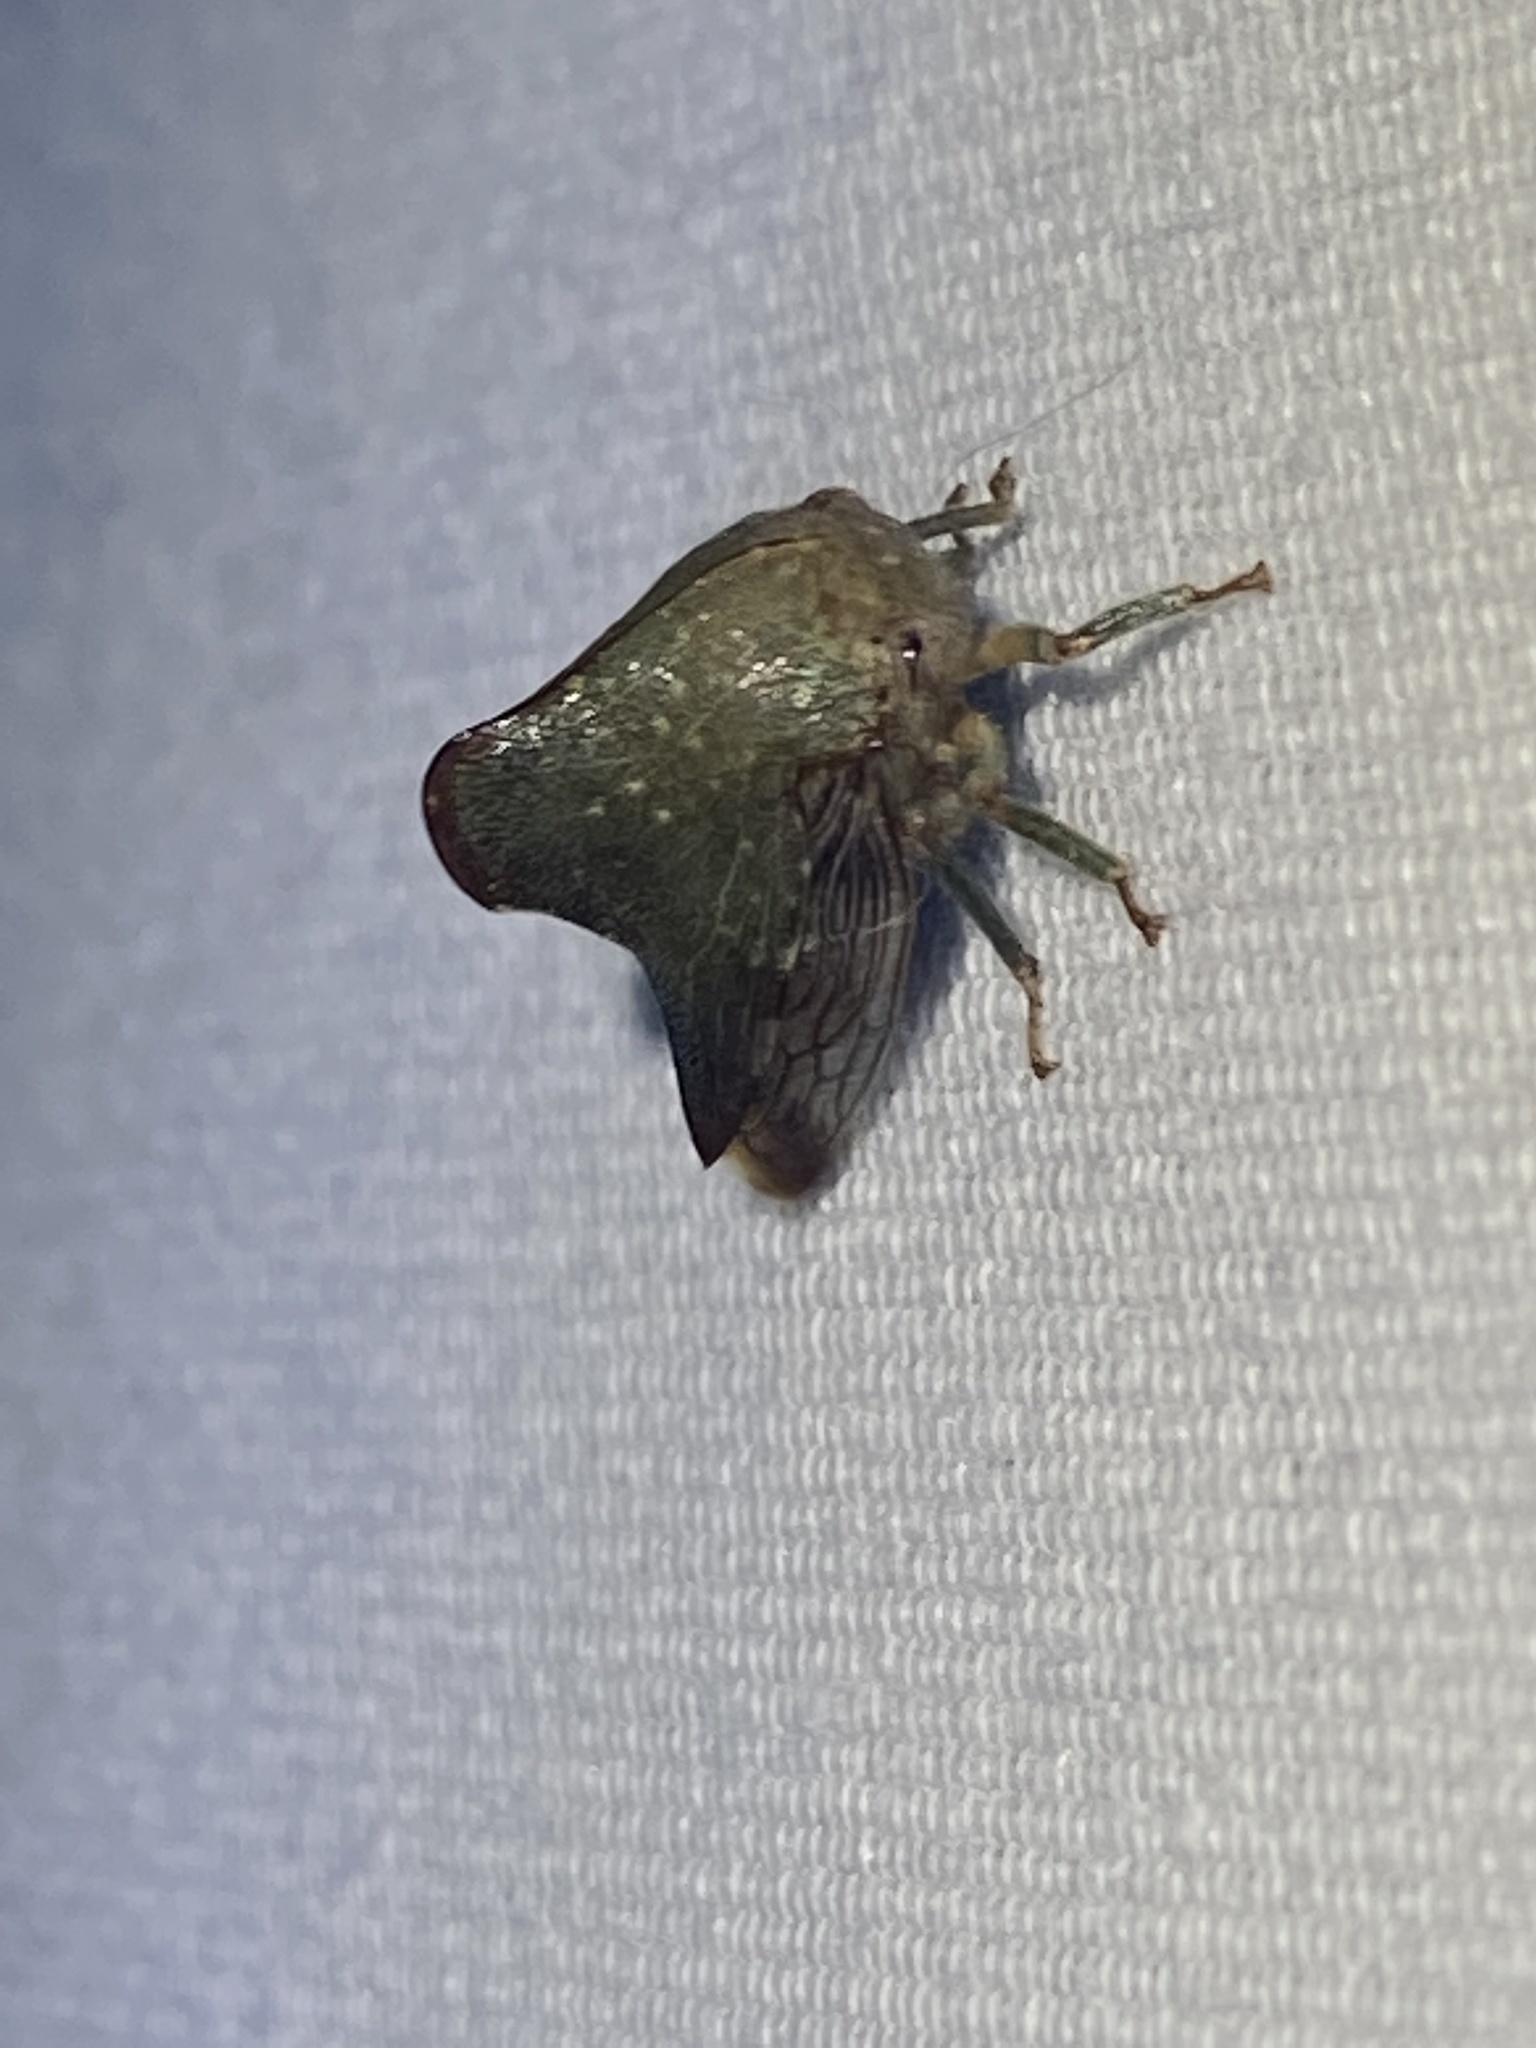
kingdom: Animalia
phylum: Arthropoda
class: Insecta
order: Hemiptera
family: Membracidae
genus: Telamona
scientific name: Telamona monticola
